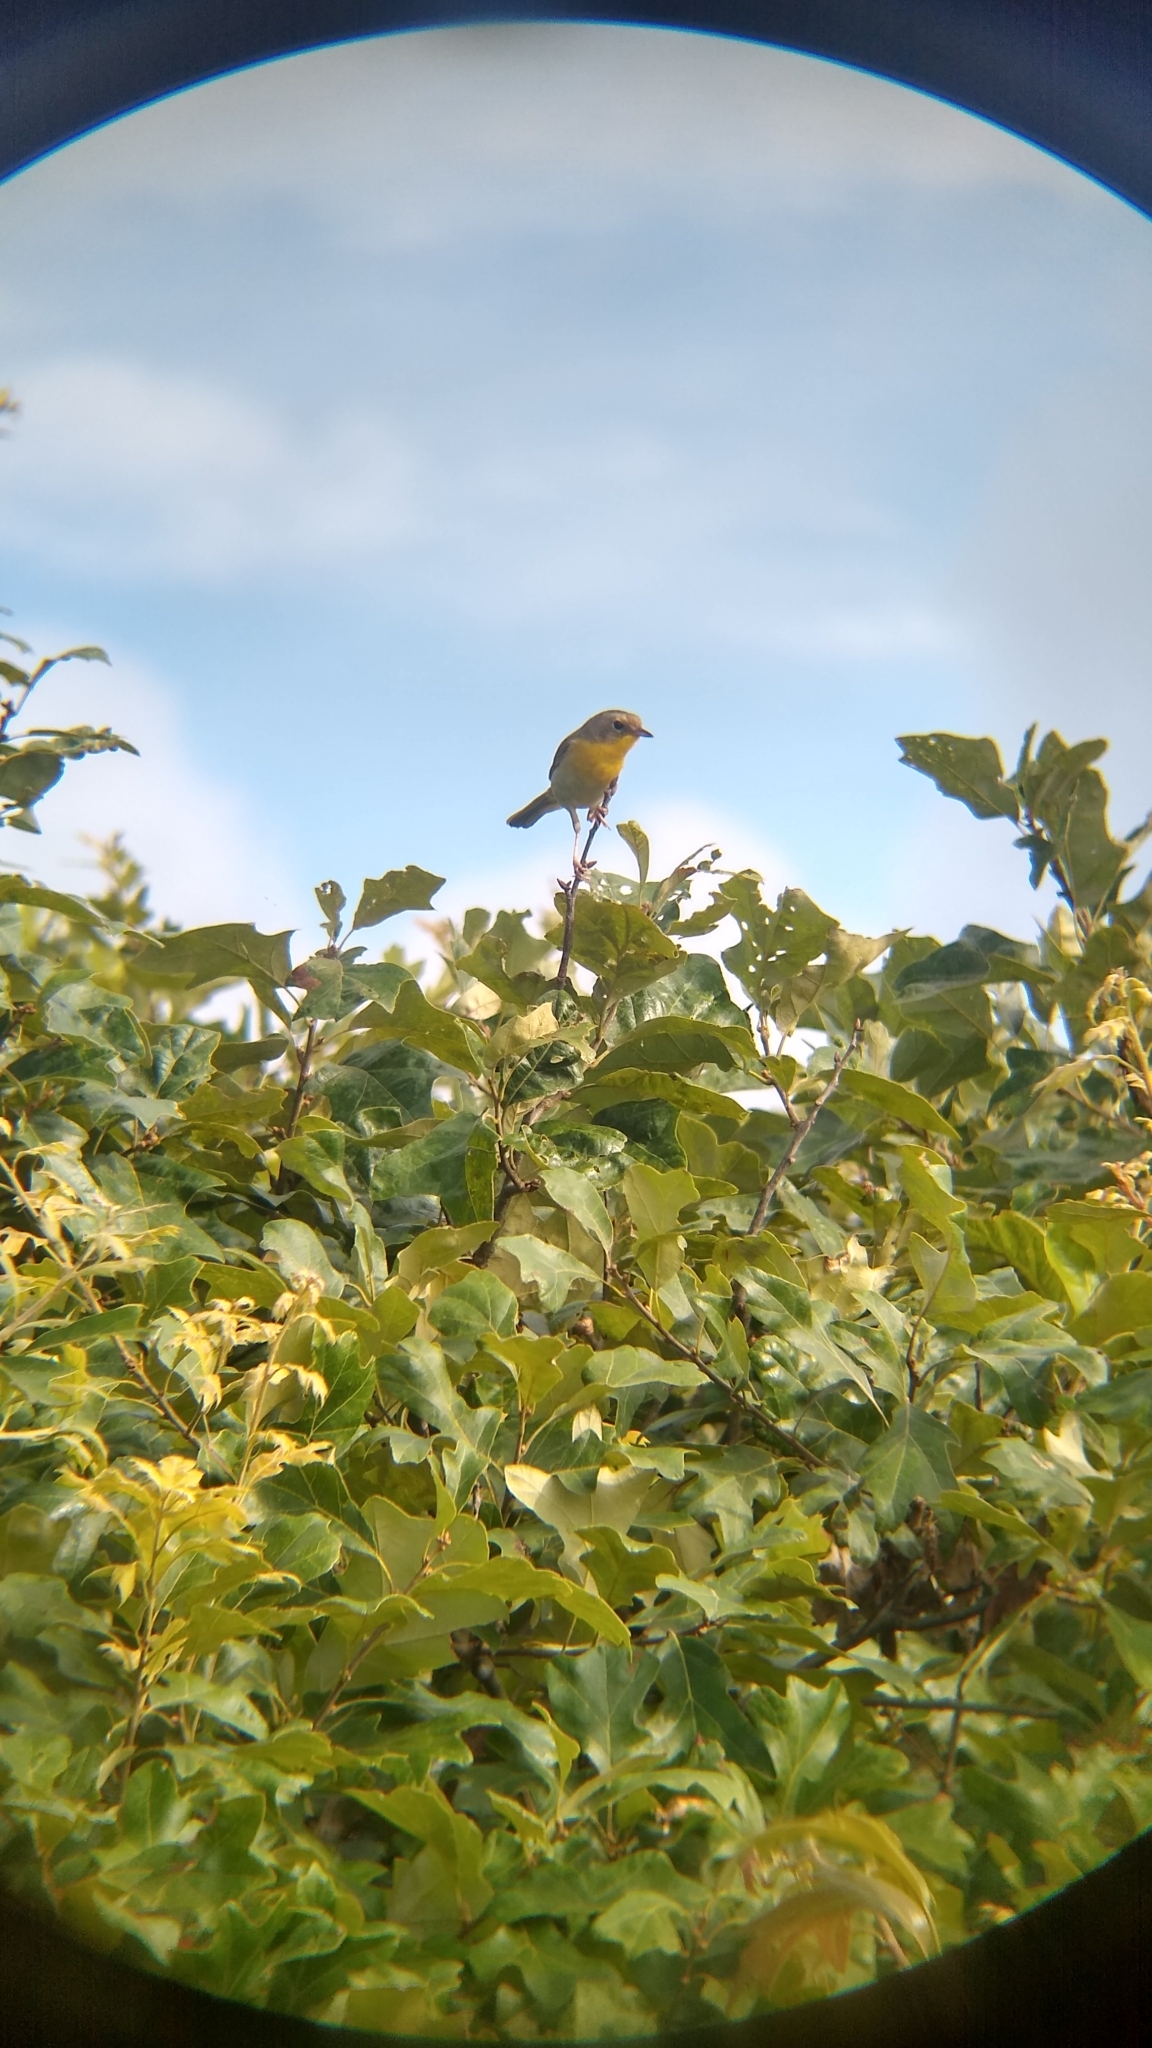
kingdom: Animalia
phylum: Chordata
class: Aves
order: Passeriformes
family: Parulidae
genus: Geothlypis
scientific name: Geothlypis trichas
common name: Common yellowthroat
